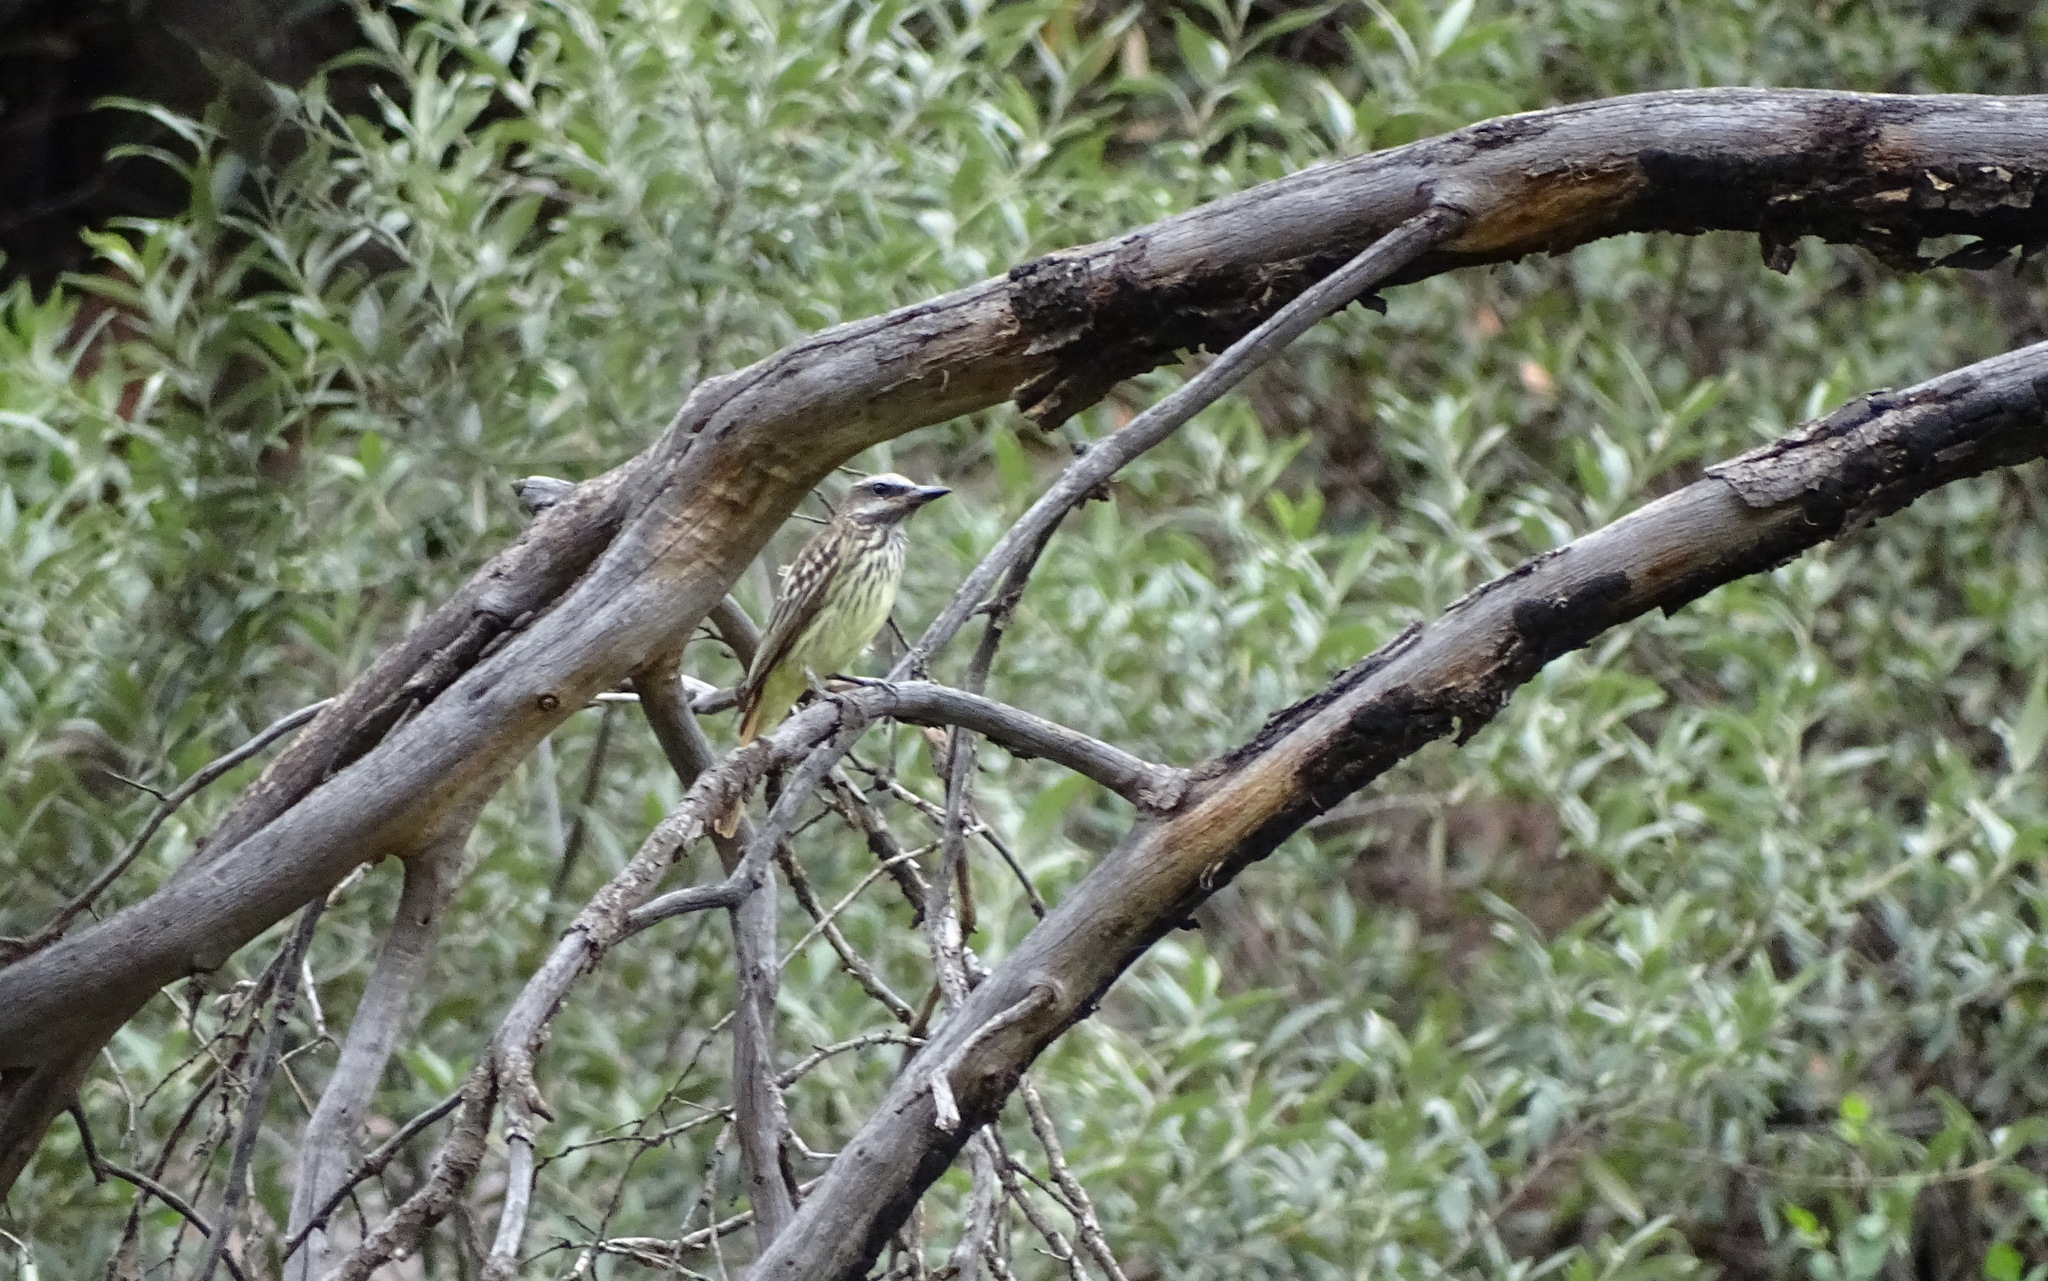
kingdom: Animalia
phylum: Chordata
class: Aves
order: Passeriformes
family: Tyrannidae
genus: Myiodynastes
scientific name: Myiodynastes luteiventris
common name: Sulphur-bellied flycatcher
